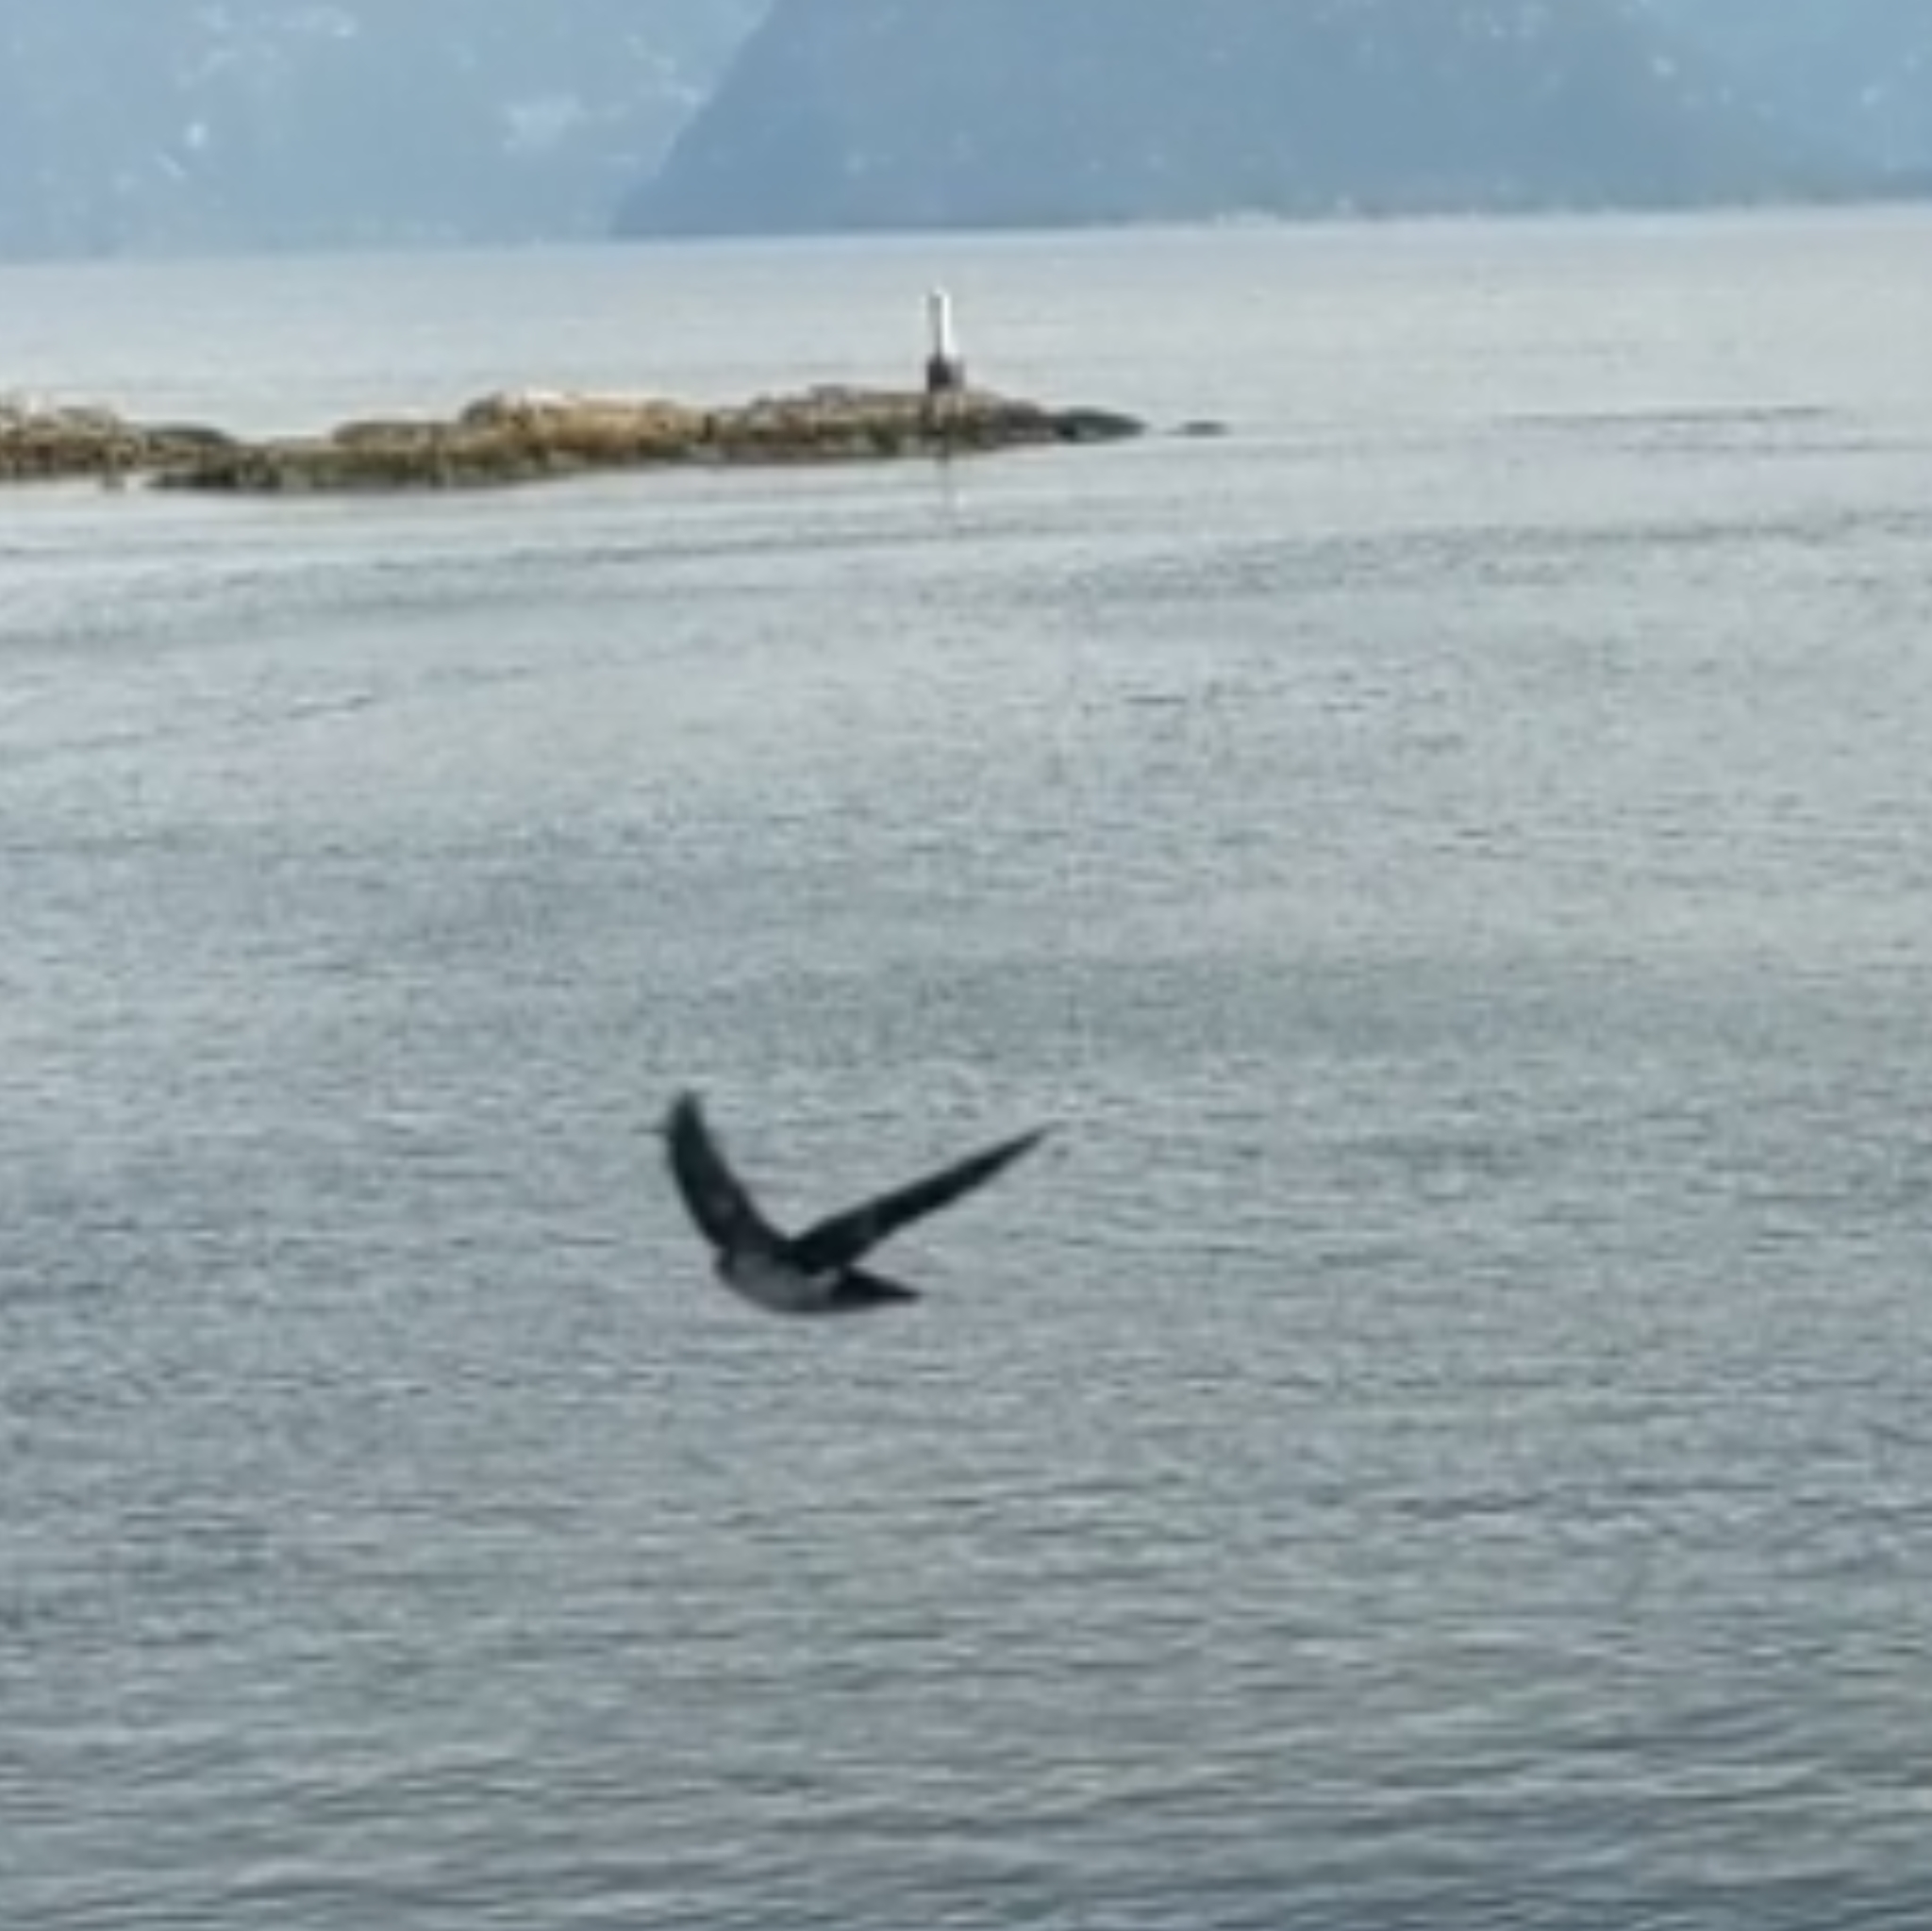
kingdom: Animalia
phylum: Chordata
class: Aves
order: Passeriformes
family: Hirundinidae
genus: Tachycineta
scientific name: Tachycineta thalassina
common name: Violet-green swallow
